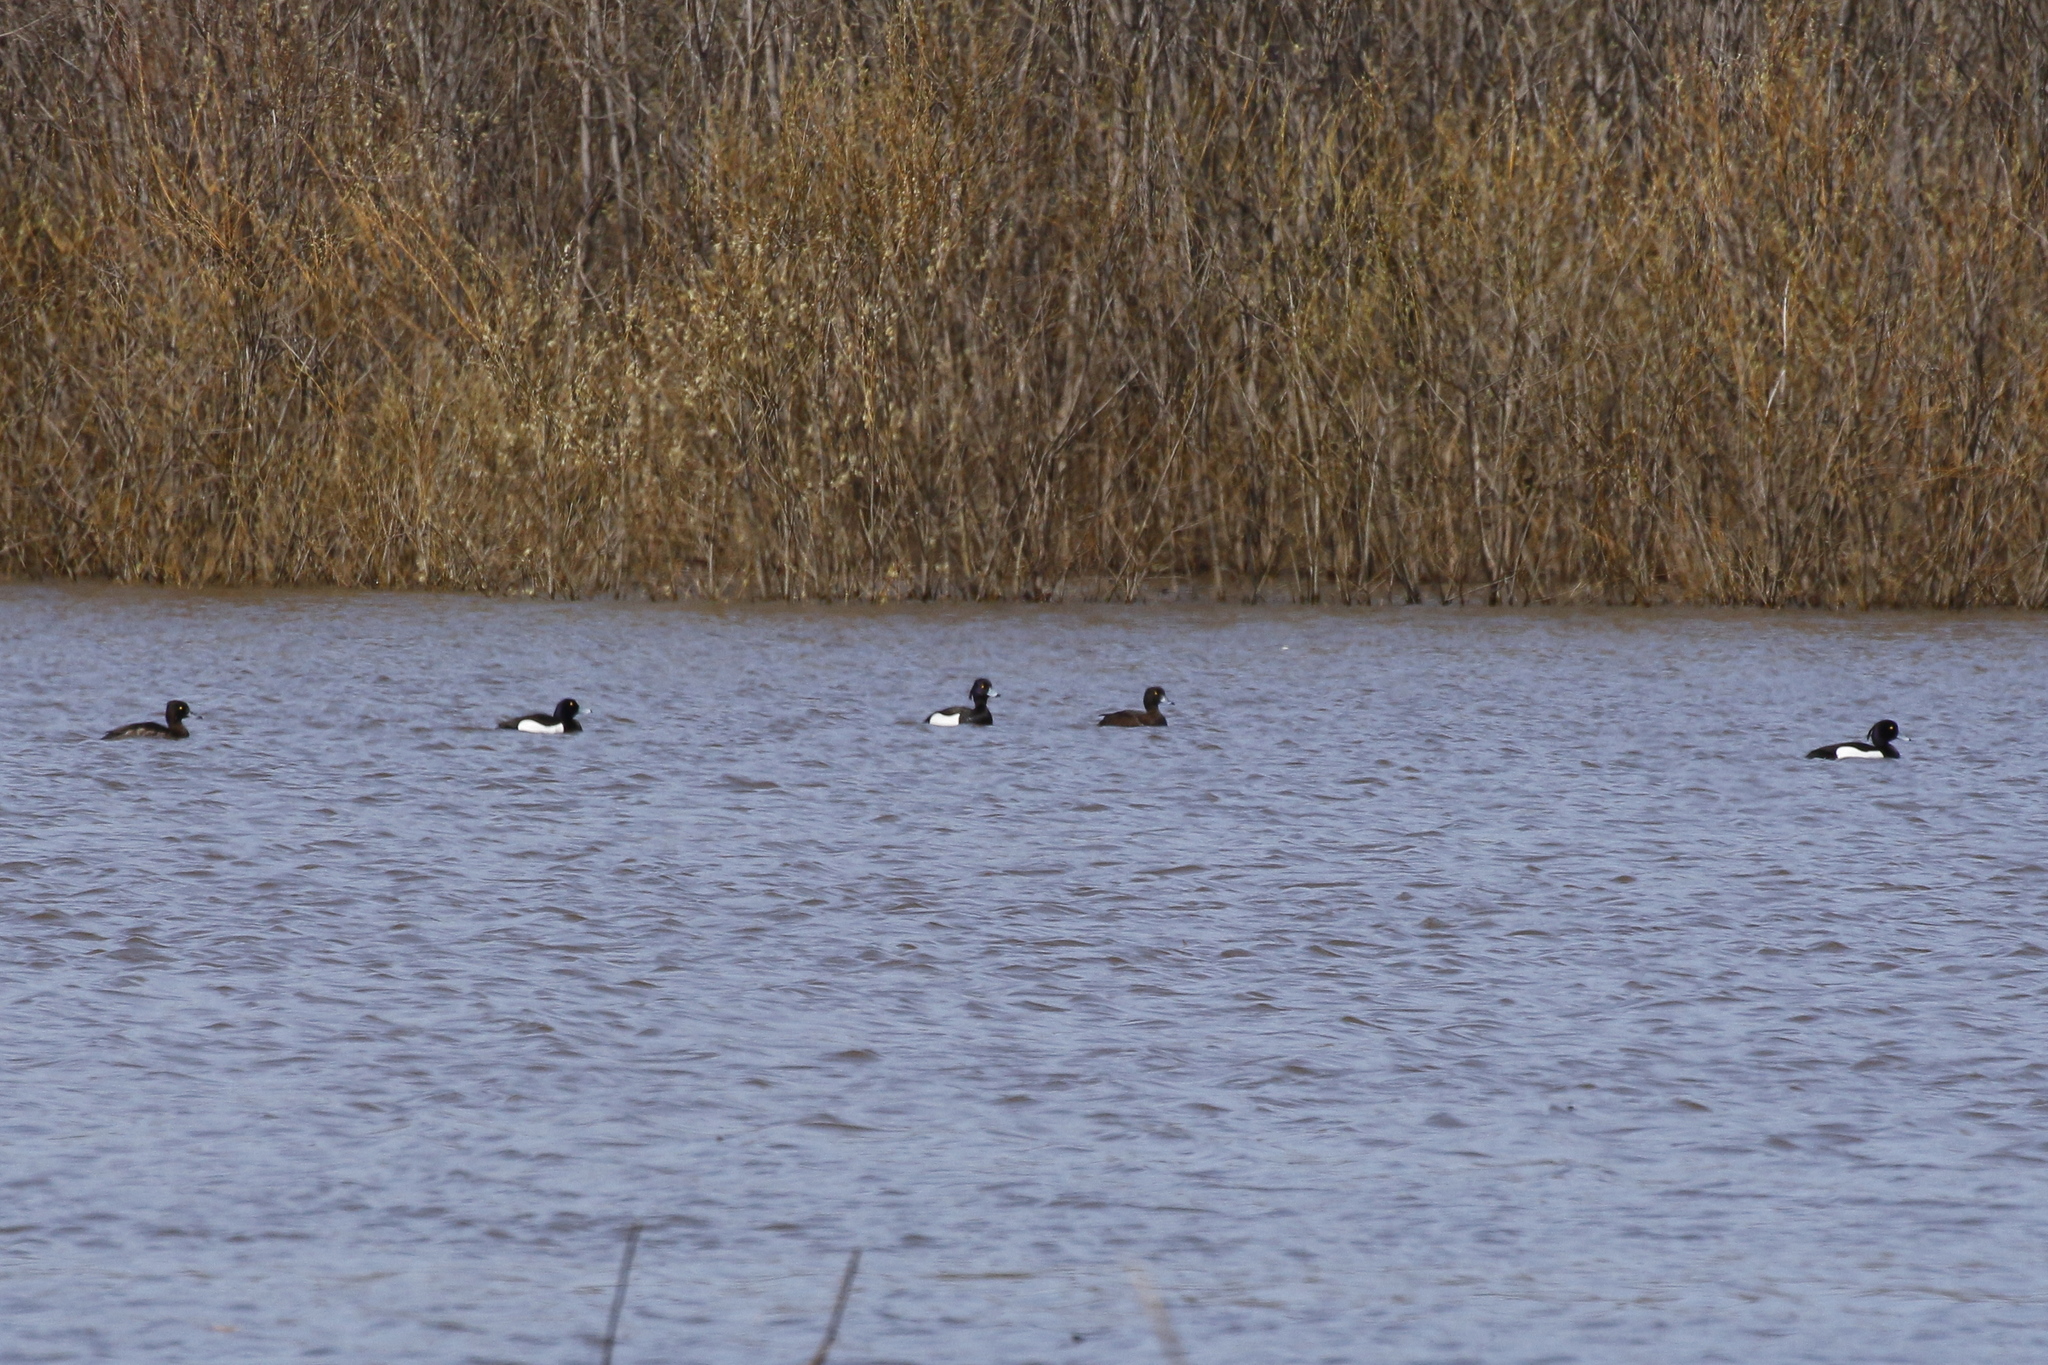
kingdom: Animalia
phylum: Chordata
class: Aves
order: Anseriformes
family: Anatidae
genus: Aythya
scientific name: Aythya fuligula
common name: Tufted duck
